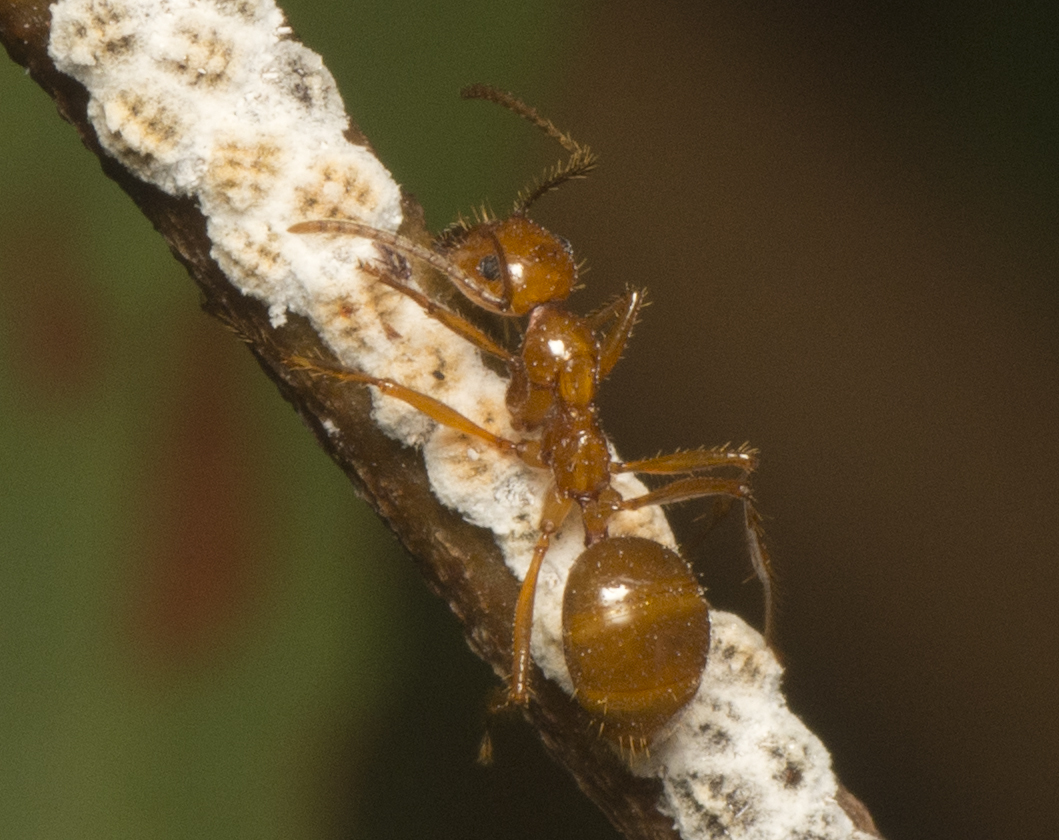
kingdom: Animalia
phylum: Arthropoda
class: Insecta
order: Hymenoptera
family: Formicidae
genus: Notoncus
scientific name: Notoncus spinisquamis
